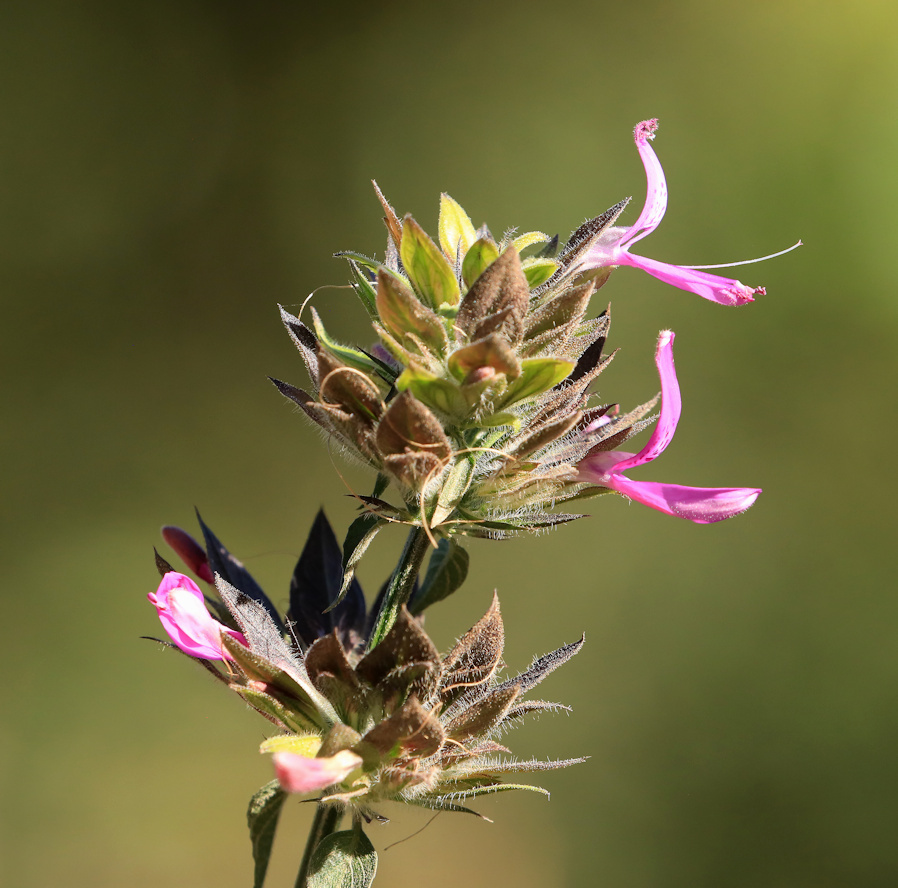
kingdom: Plantae
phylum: Tracheophyta
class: Magnoliopsida
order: Lamiales
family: Acanthaceae
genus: Dicliptera
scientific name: Dicliptera clinopodia
